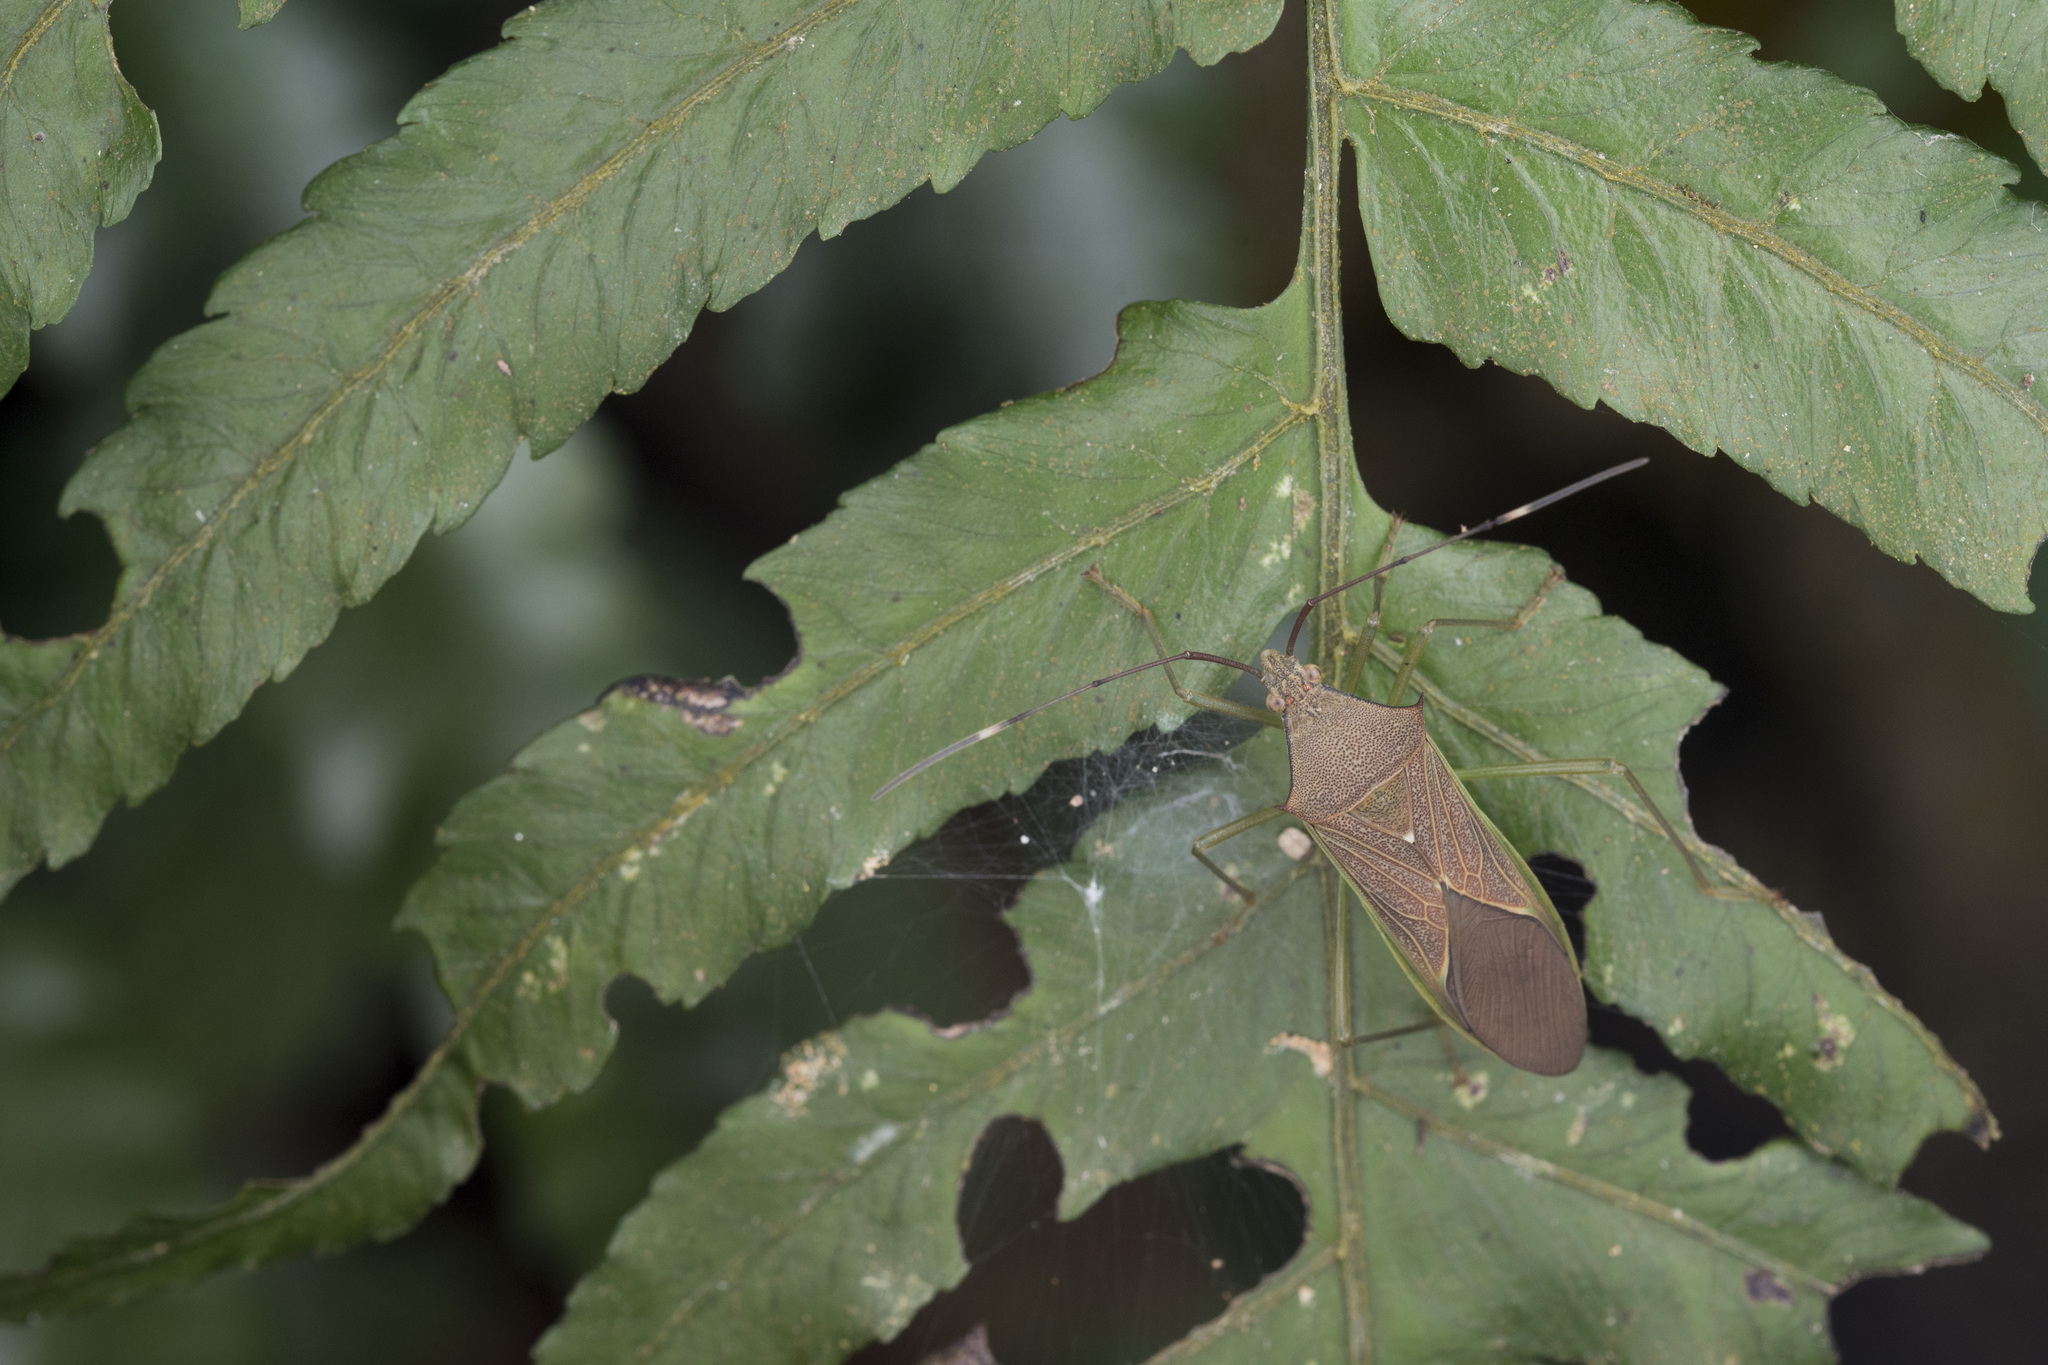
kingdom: Animalia
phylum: Arthropoda
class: Insecta
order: Hemiptera
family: Coreidae
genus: Paradasynus
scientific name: Paradasynus spinosus
